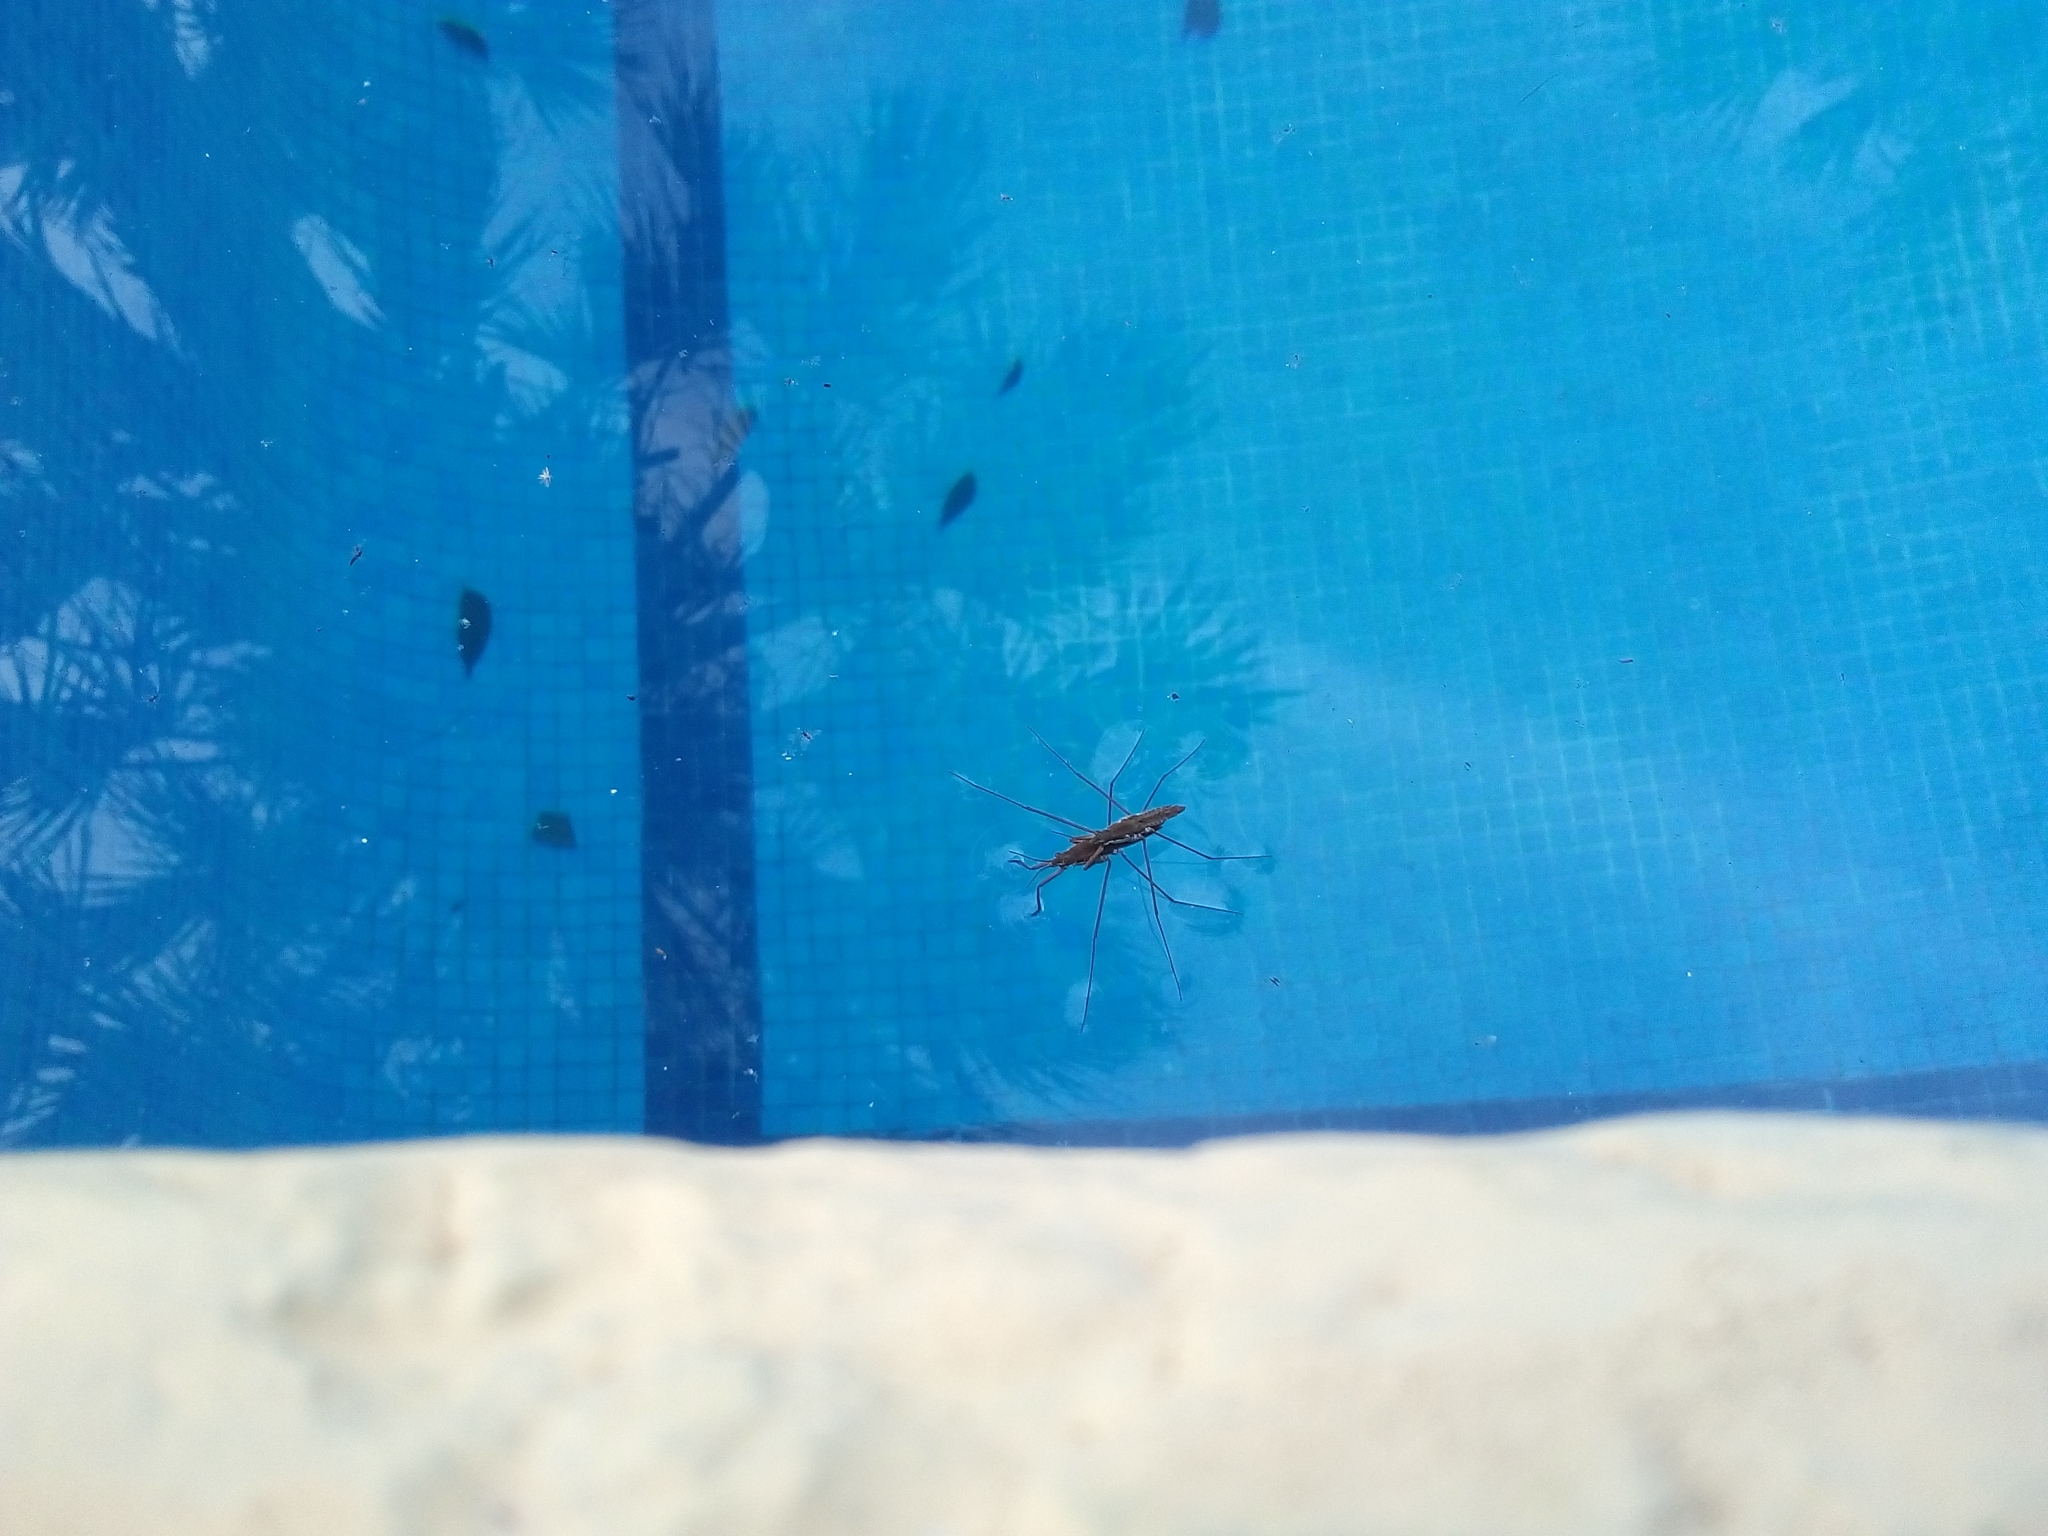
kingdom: Animalia
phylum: Arthropoda
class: Insecta
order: Hemiptera
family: Gerridae
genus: Aquarius
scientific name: Aquarius
